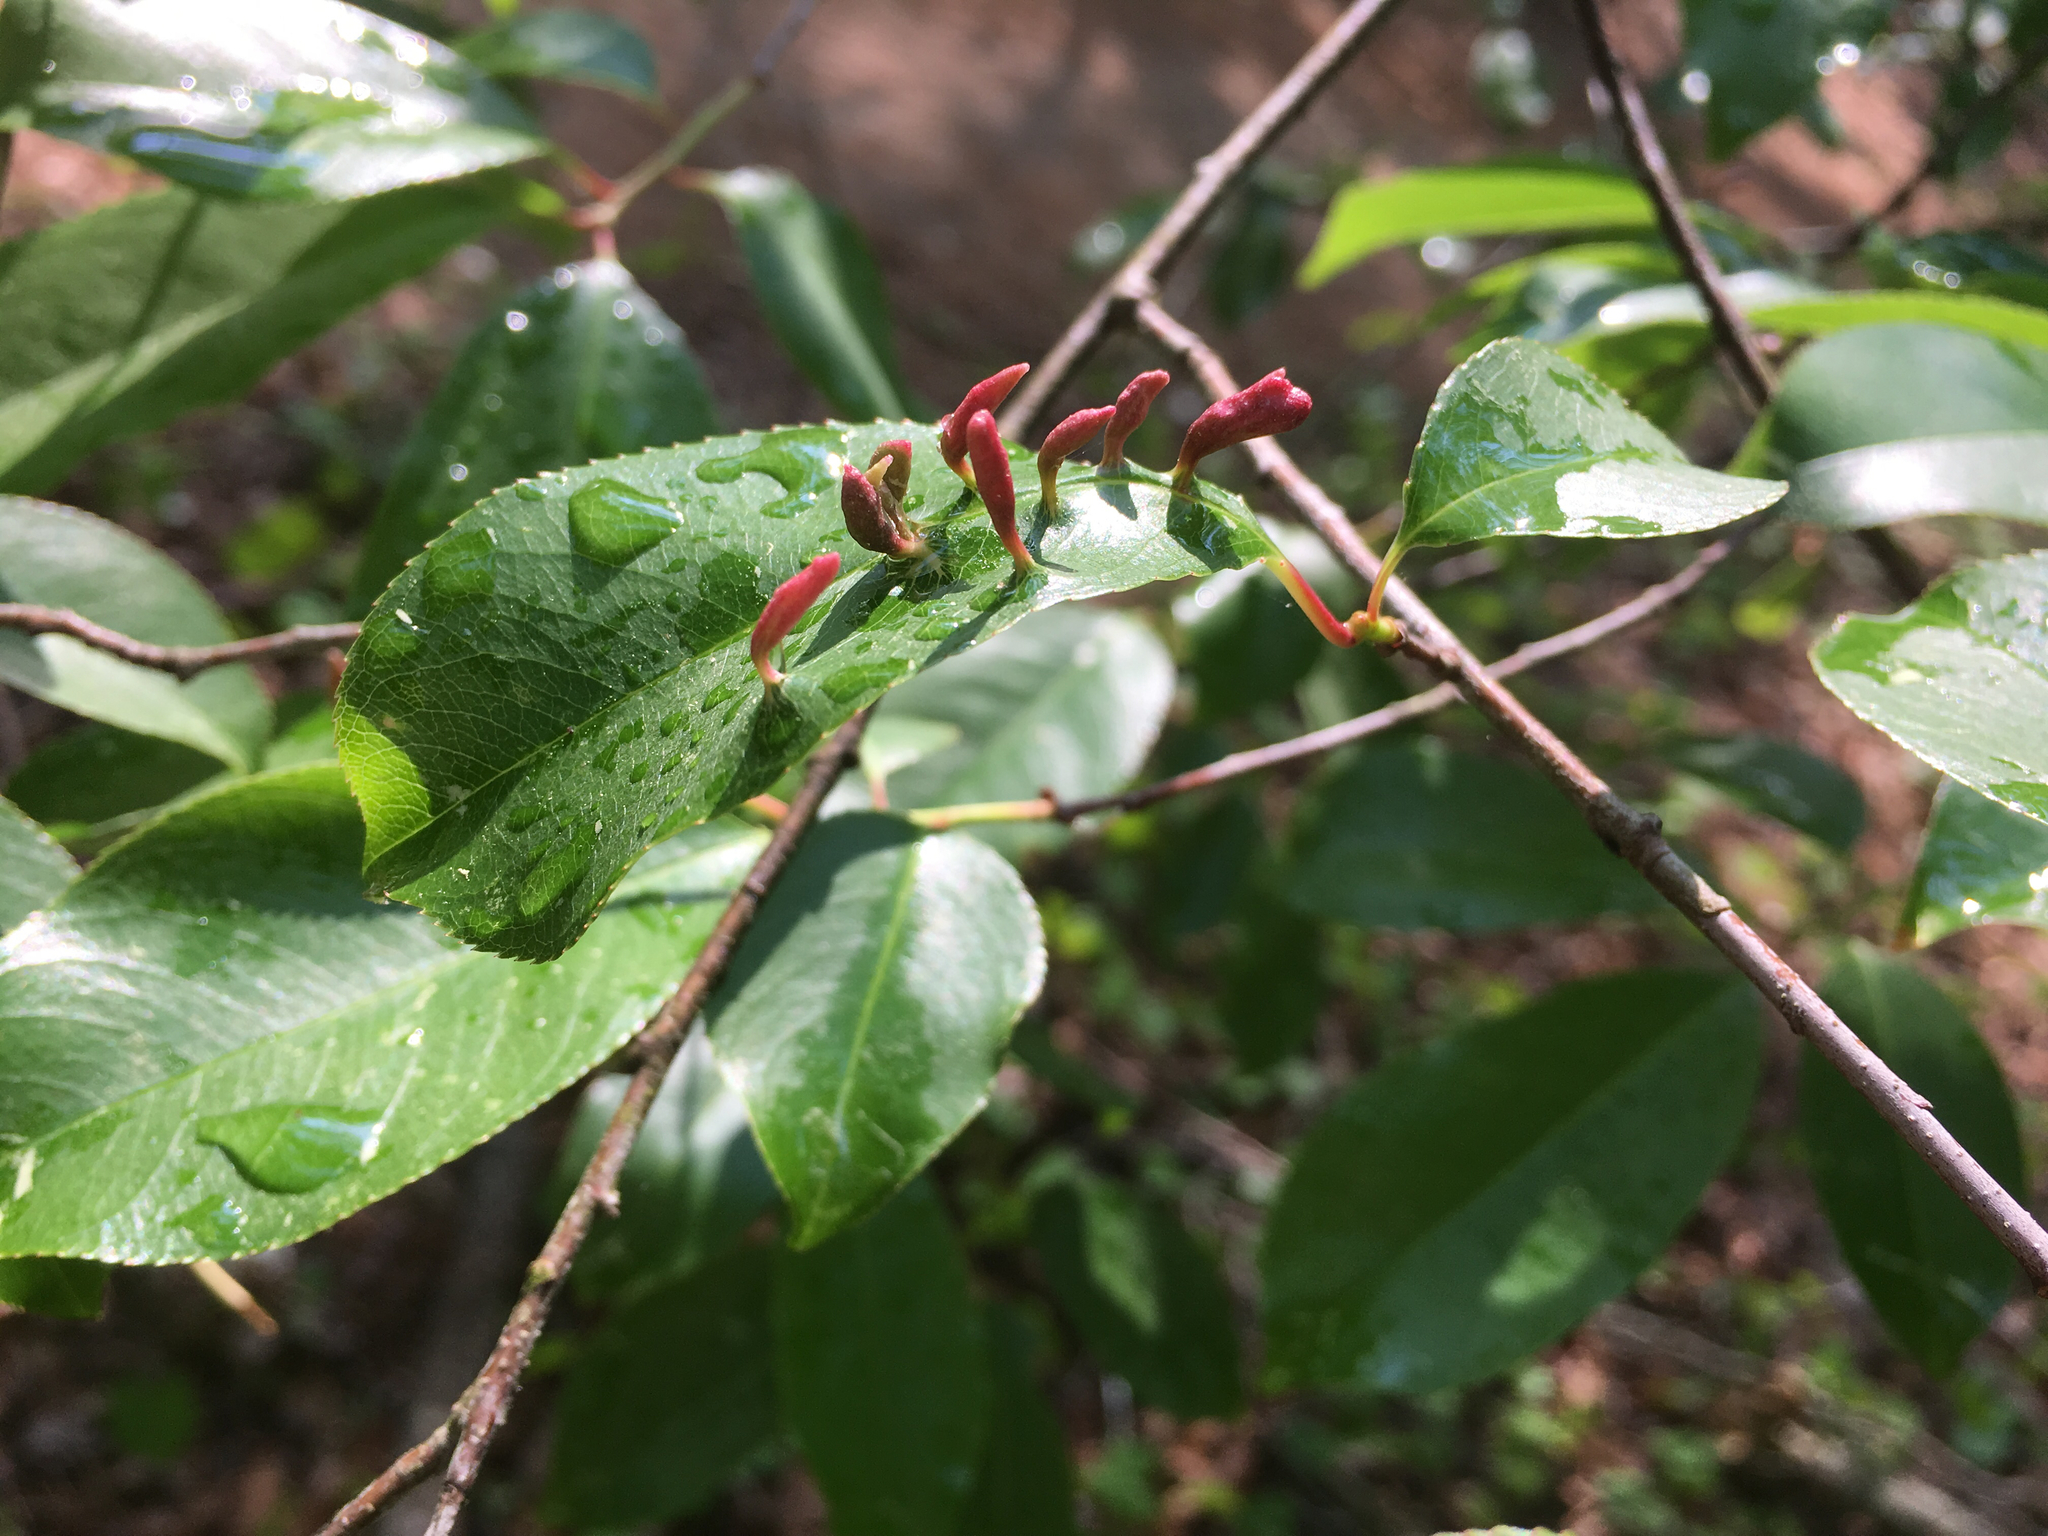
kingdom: Animalia
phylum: Arthropoda
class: Arachnida
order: Trombidiformes
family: Eriophyidae
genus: Eriophyes
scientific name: Eriophyes
